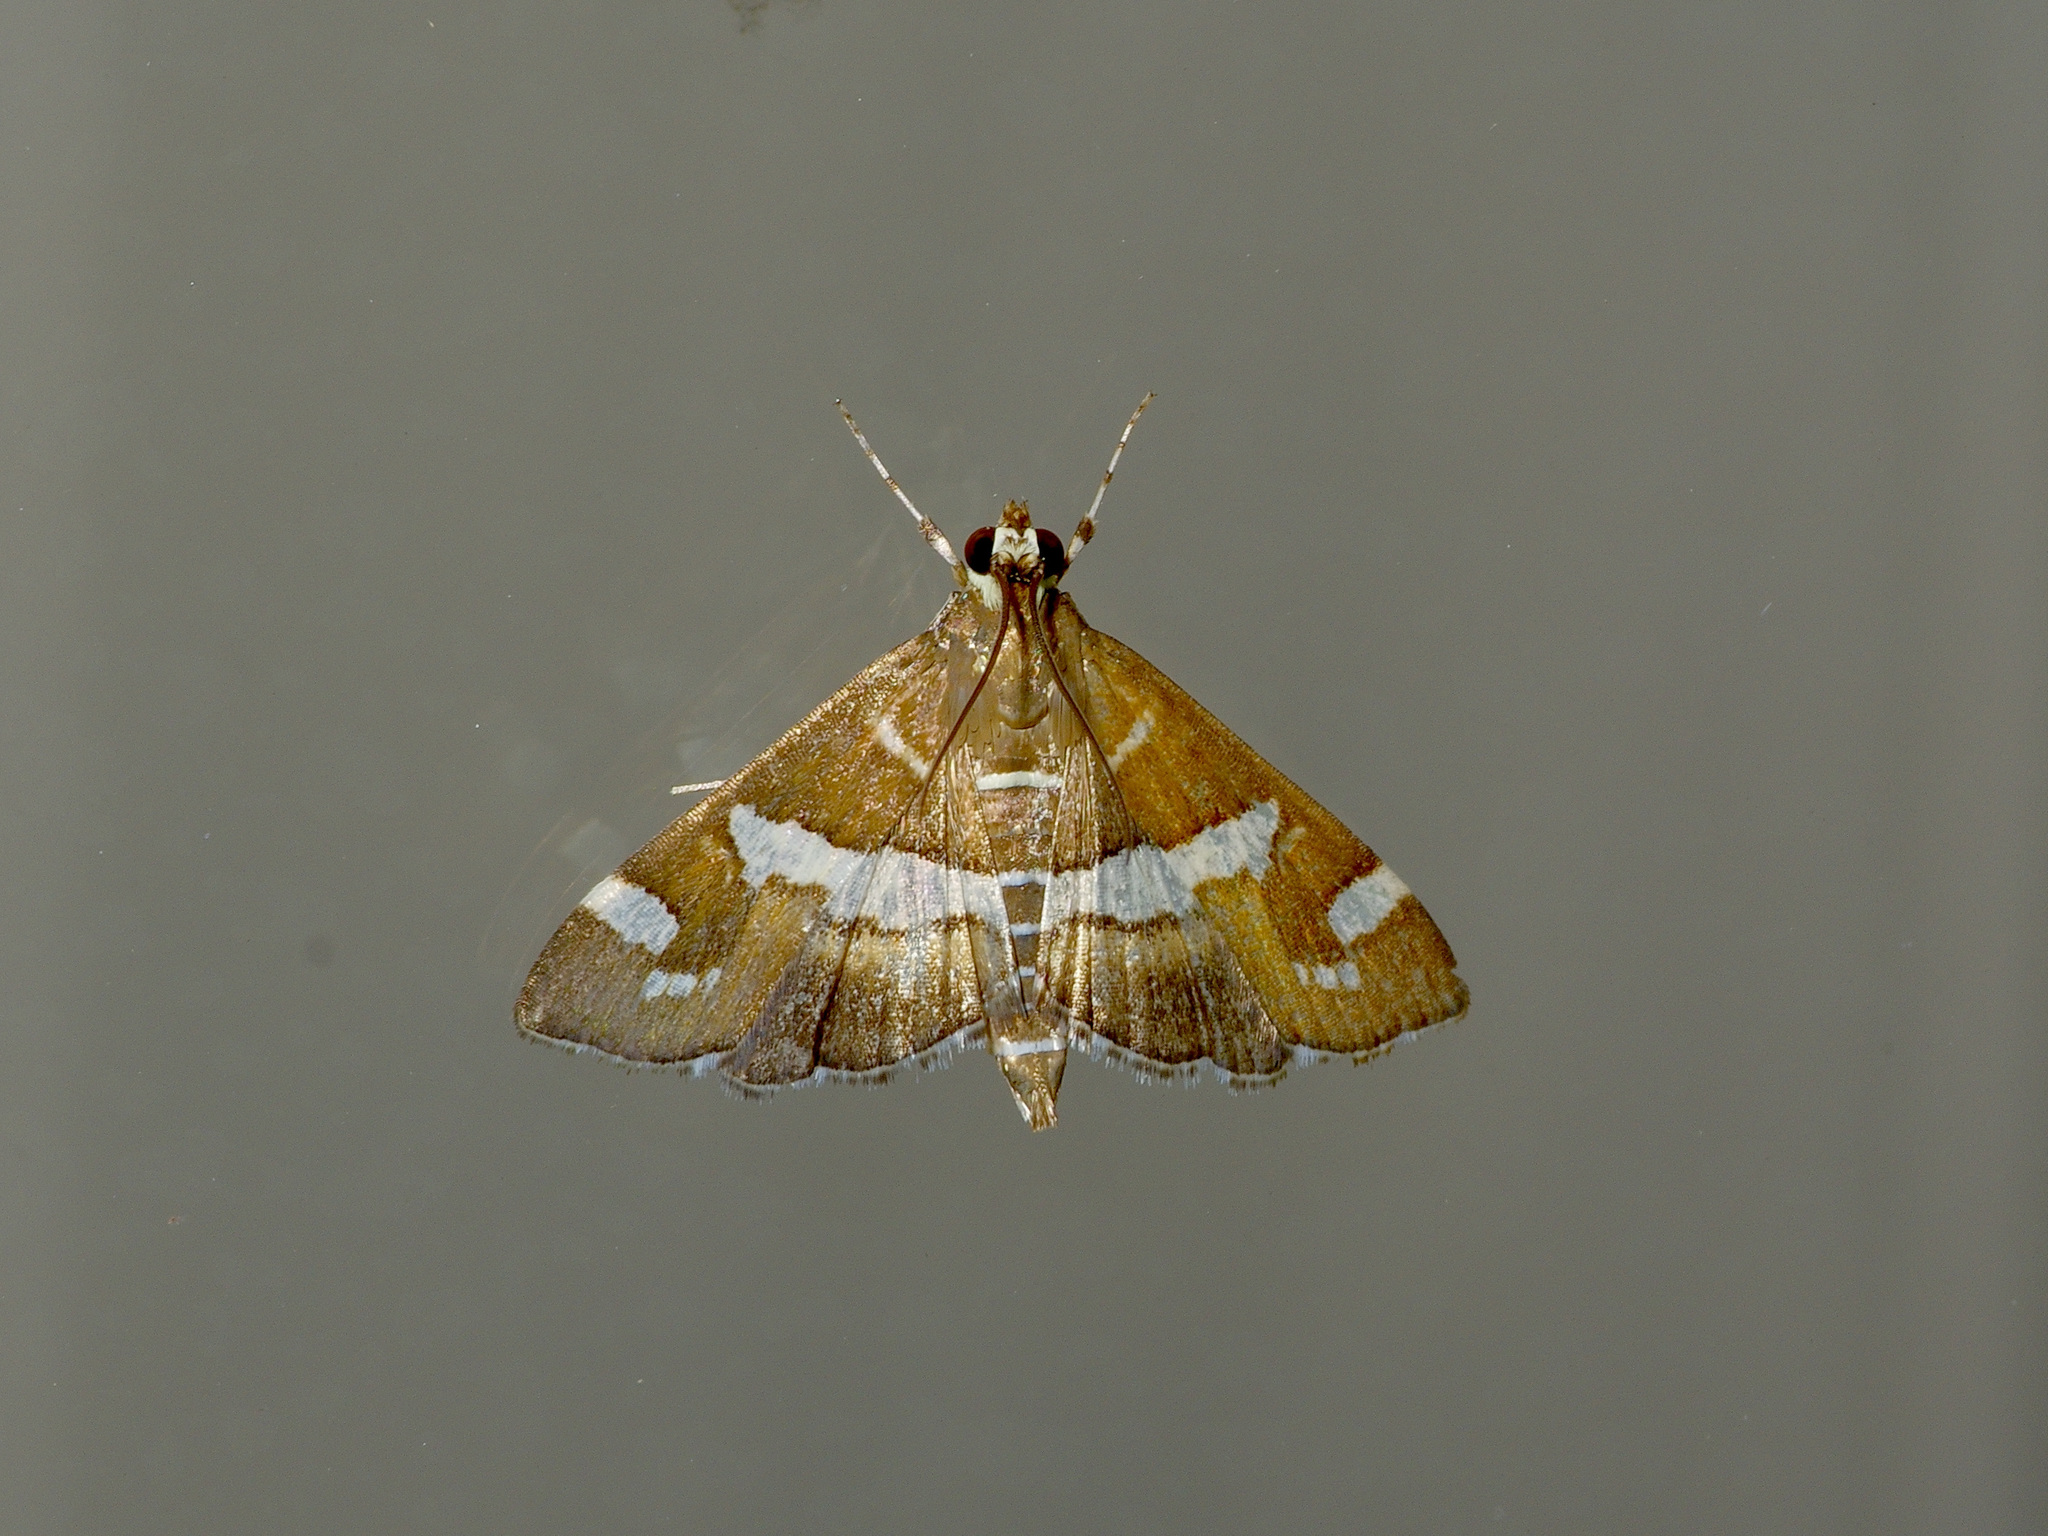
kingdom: Animalia
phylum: Arthropoda
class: Insecta
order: Lepidoptera
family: Crambidae
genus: Spoladea
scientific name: Spoladea recurvalis
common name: Beet webworm moth
